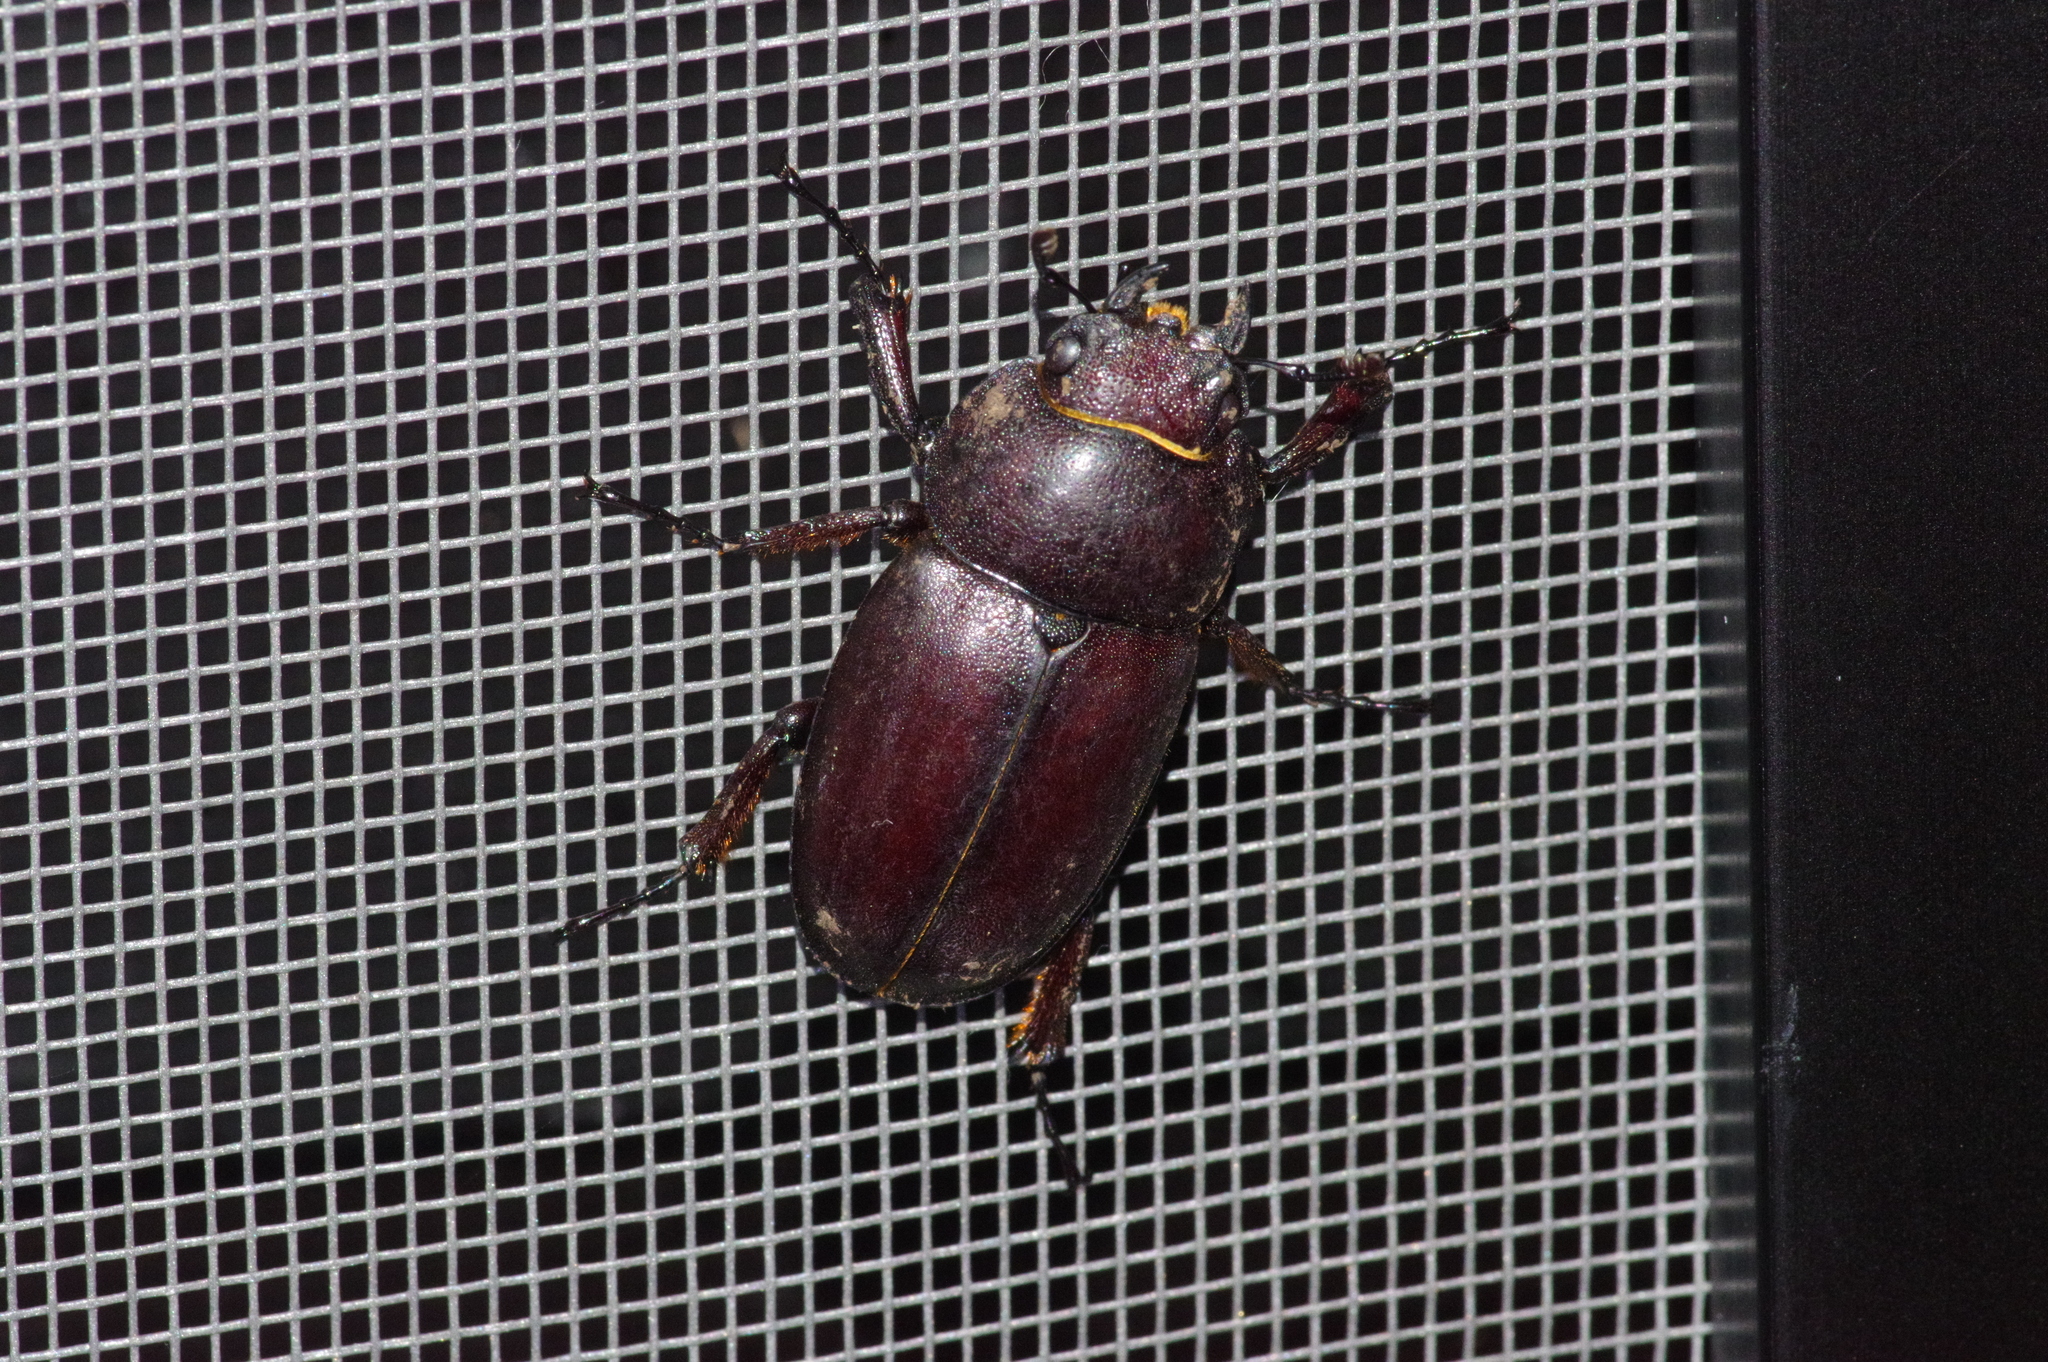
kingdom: Animalia
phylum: Arthropoda
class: Insecta
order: Coleoptera
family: Lucanidae
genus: Prosopocoilus
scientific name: Prosopocoilus dissimilis
